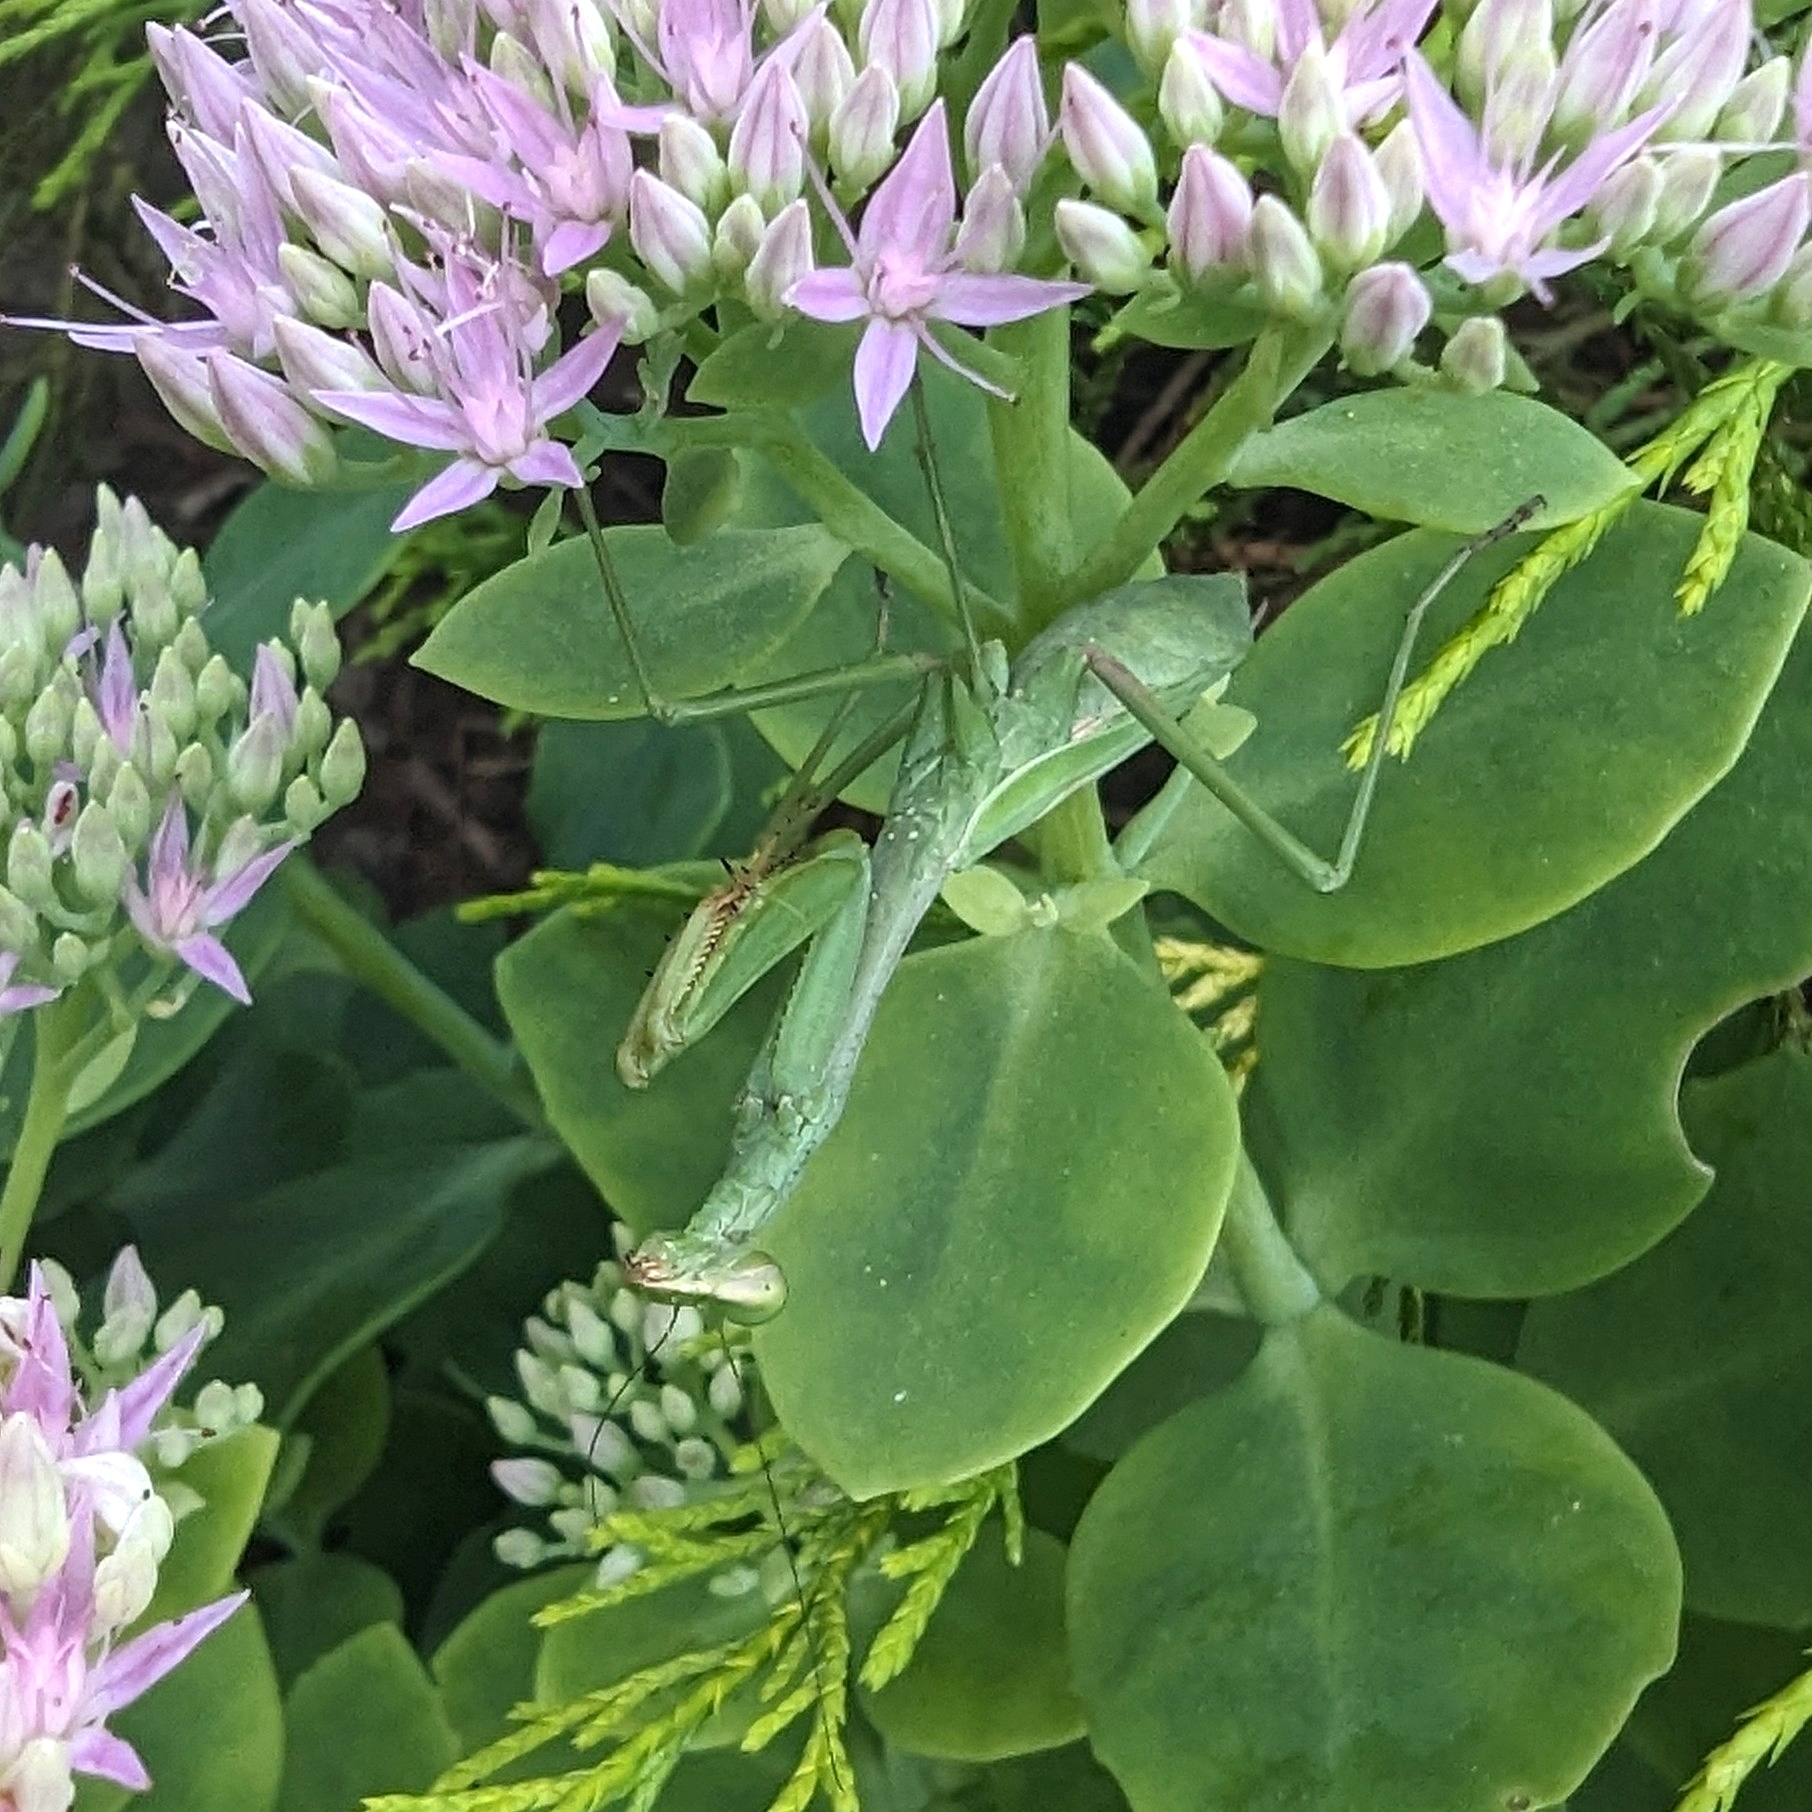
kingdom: Animalia
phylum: Arthropoda
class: Insecta
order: Mantodea
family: Mantidae
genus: Stagmomantis
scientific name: Stagmomantis carolina
